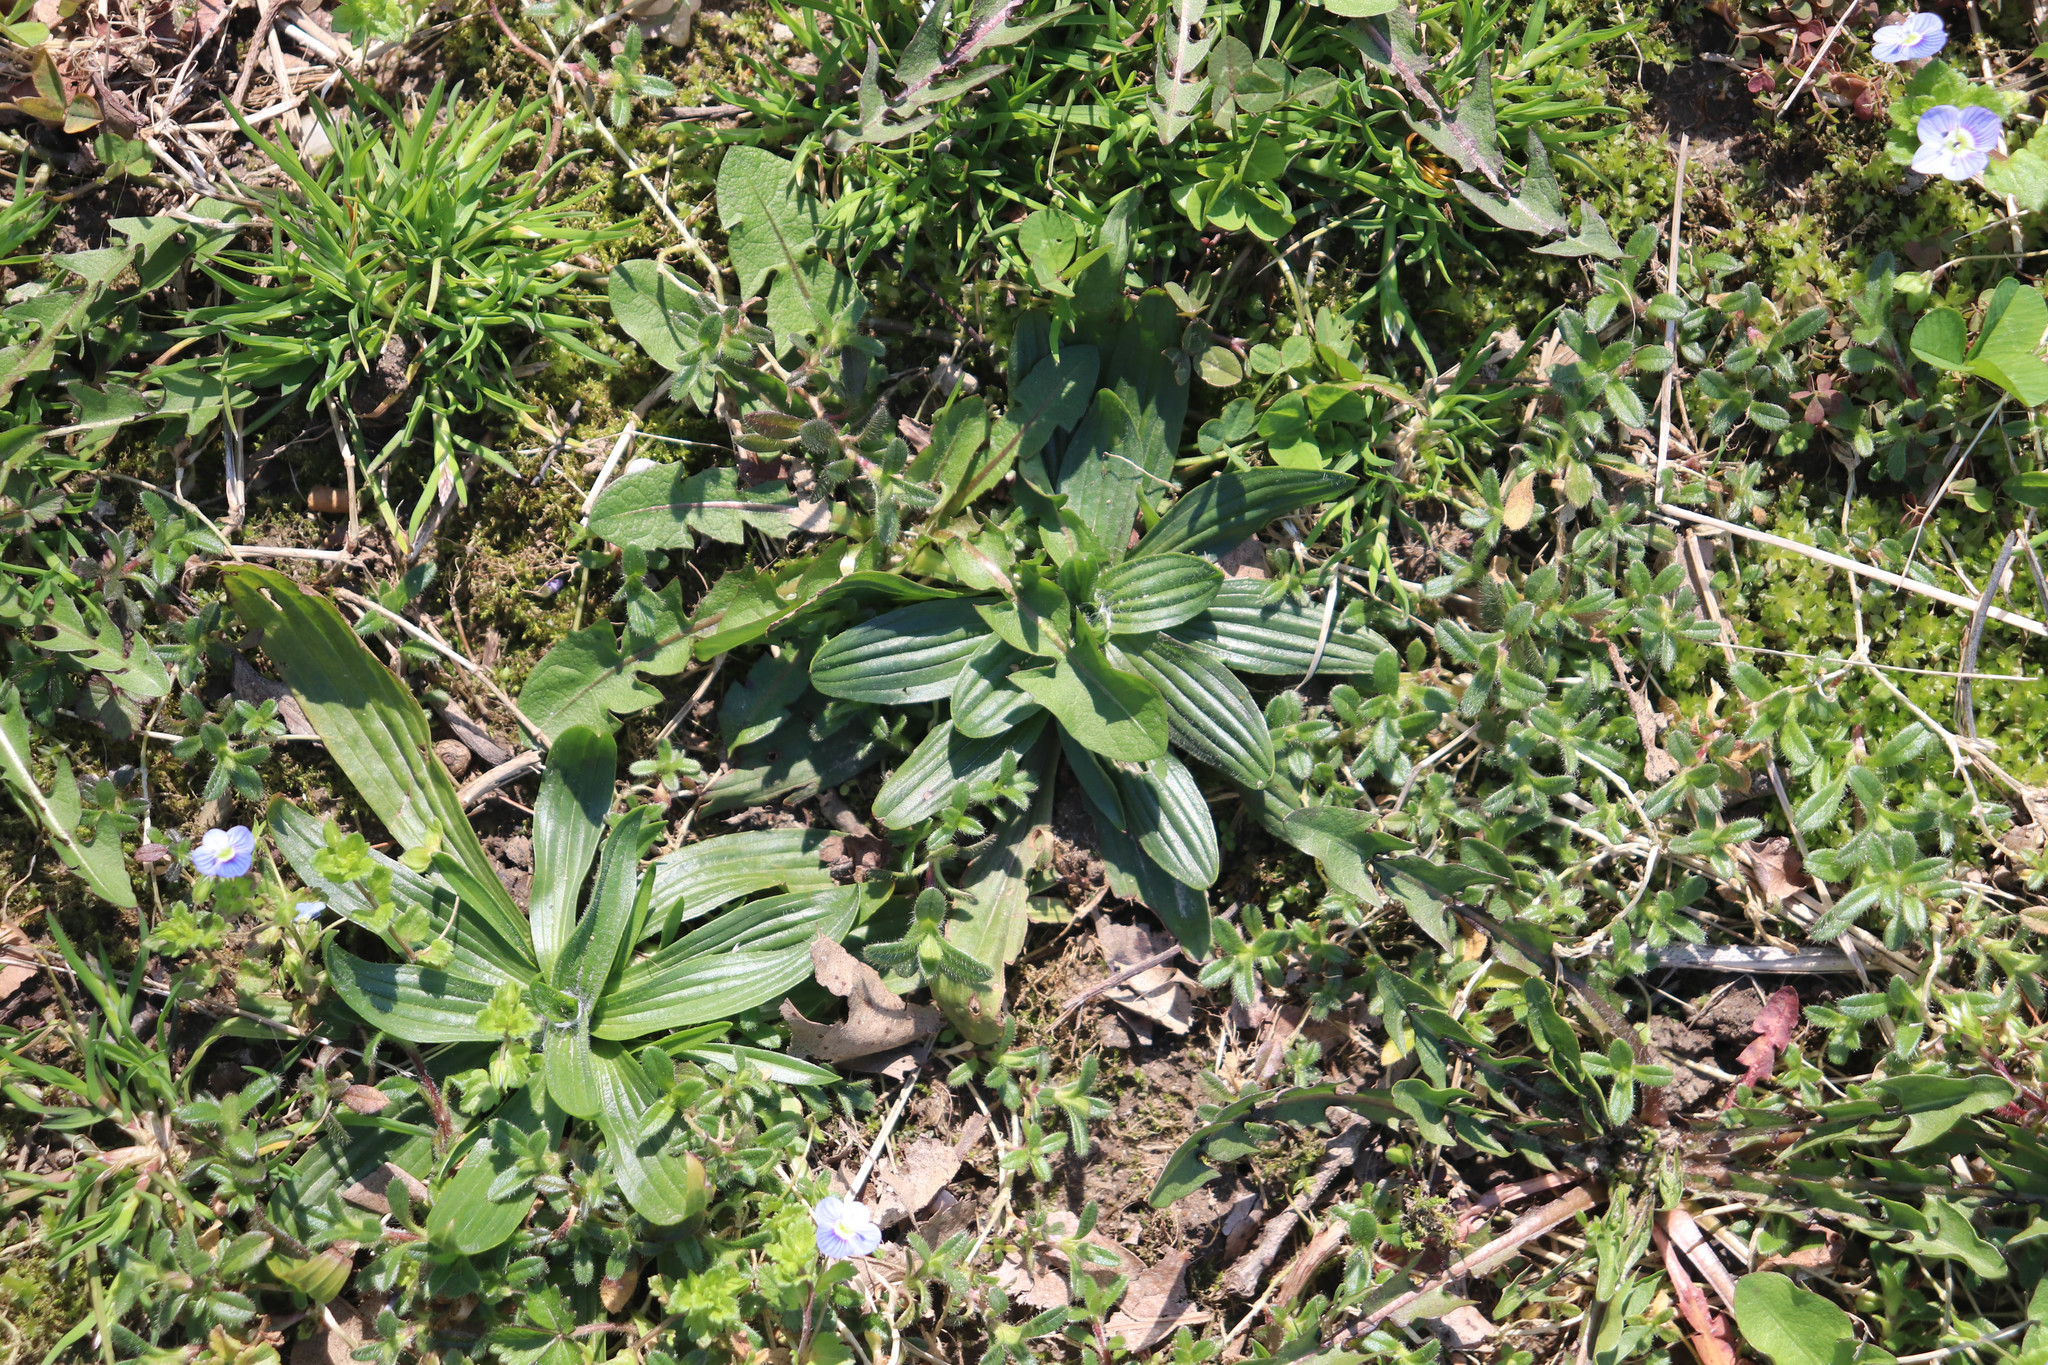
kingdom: Plantae
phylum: Tracheophyta
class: Magnoliopsida
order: Lamiales
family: Plantaginaceae
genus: Plantago
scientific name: Plantago lanceolata
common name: Ribwort plantain
